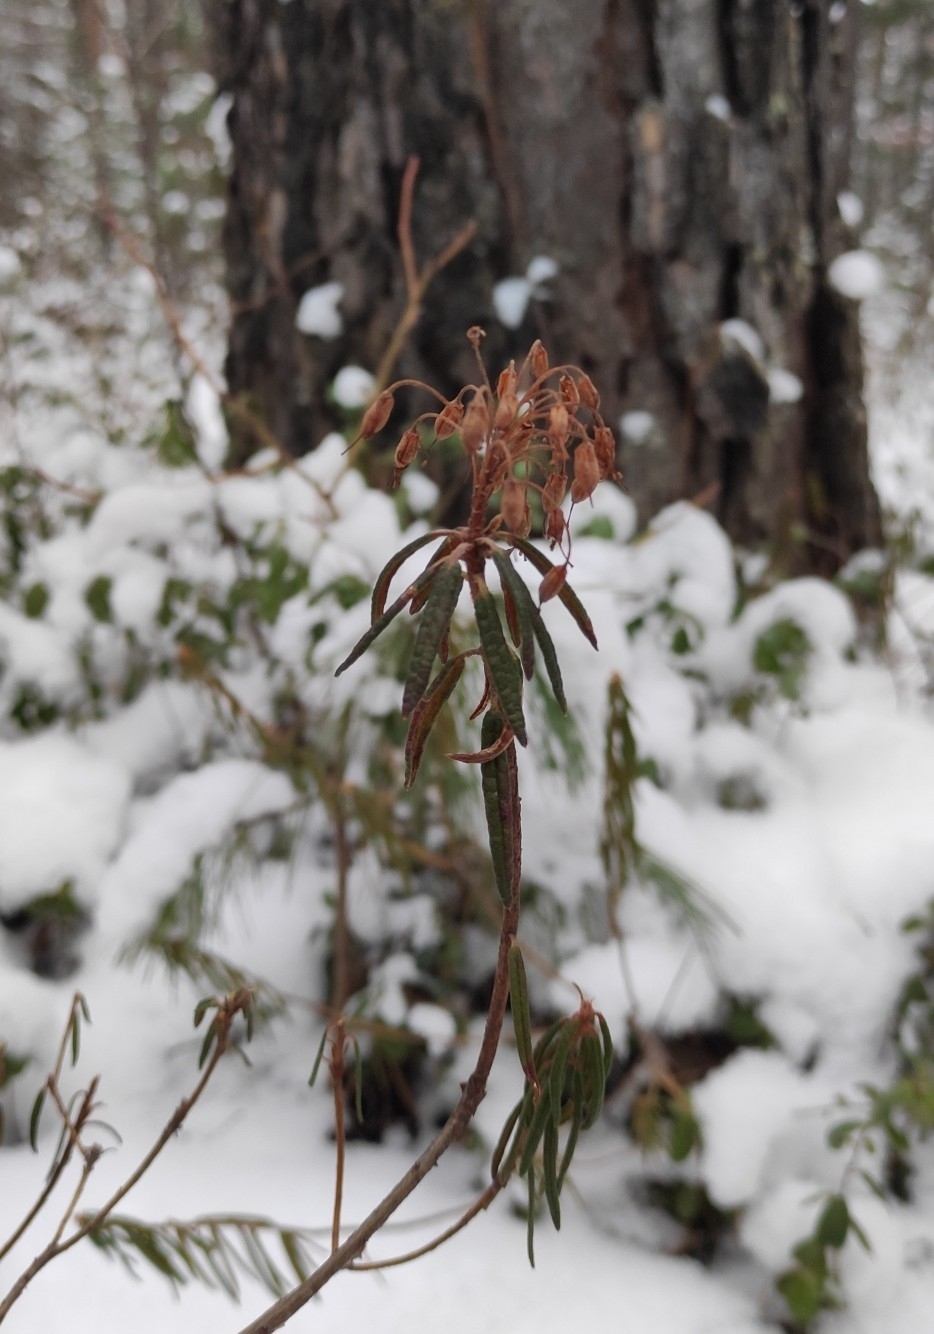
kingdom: Plantae
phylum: Tracheophyta
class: Magnoliopsida
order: Ericales
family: Ericaceae
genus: Rhododendron
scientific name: Rhododendron tomentosum
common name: Marsh labrador tea
